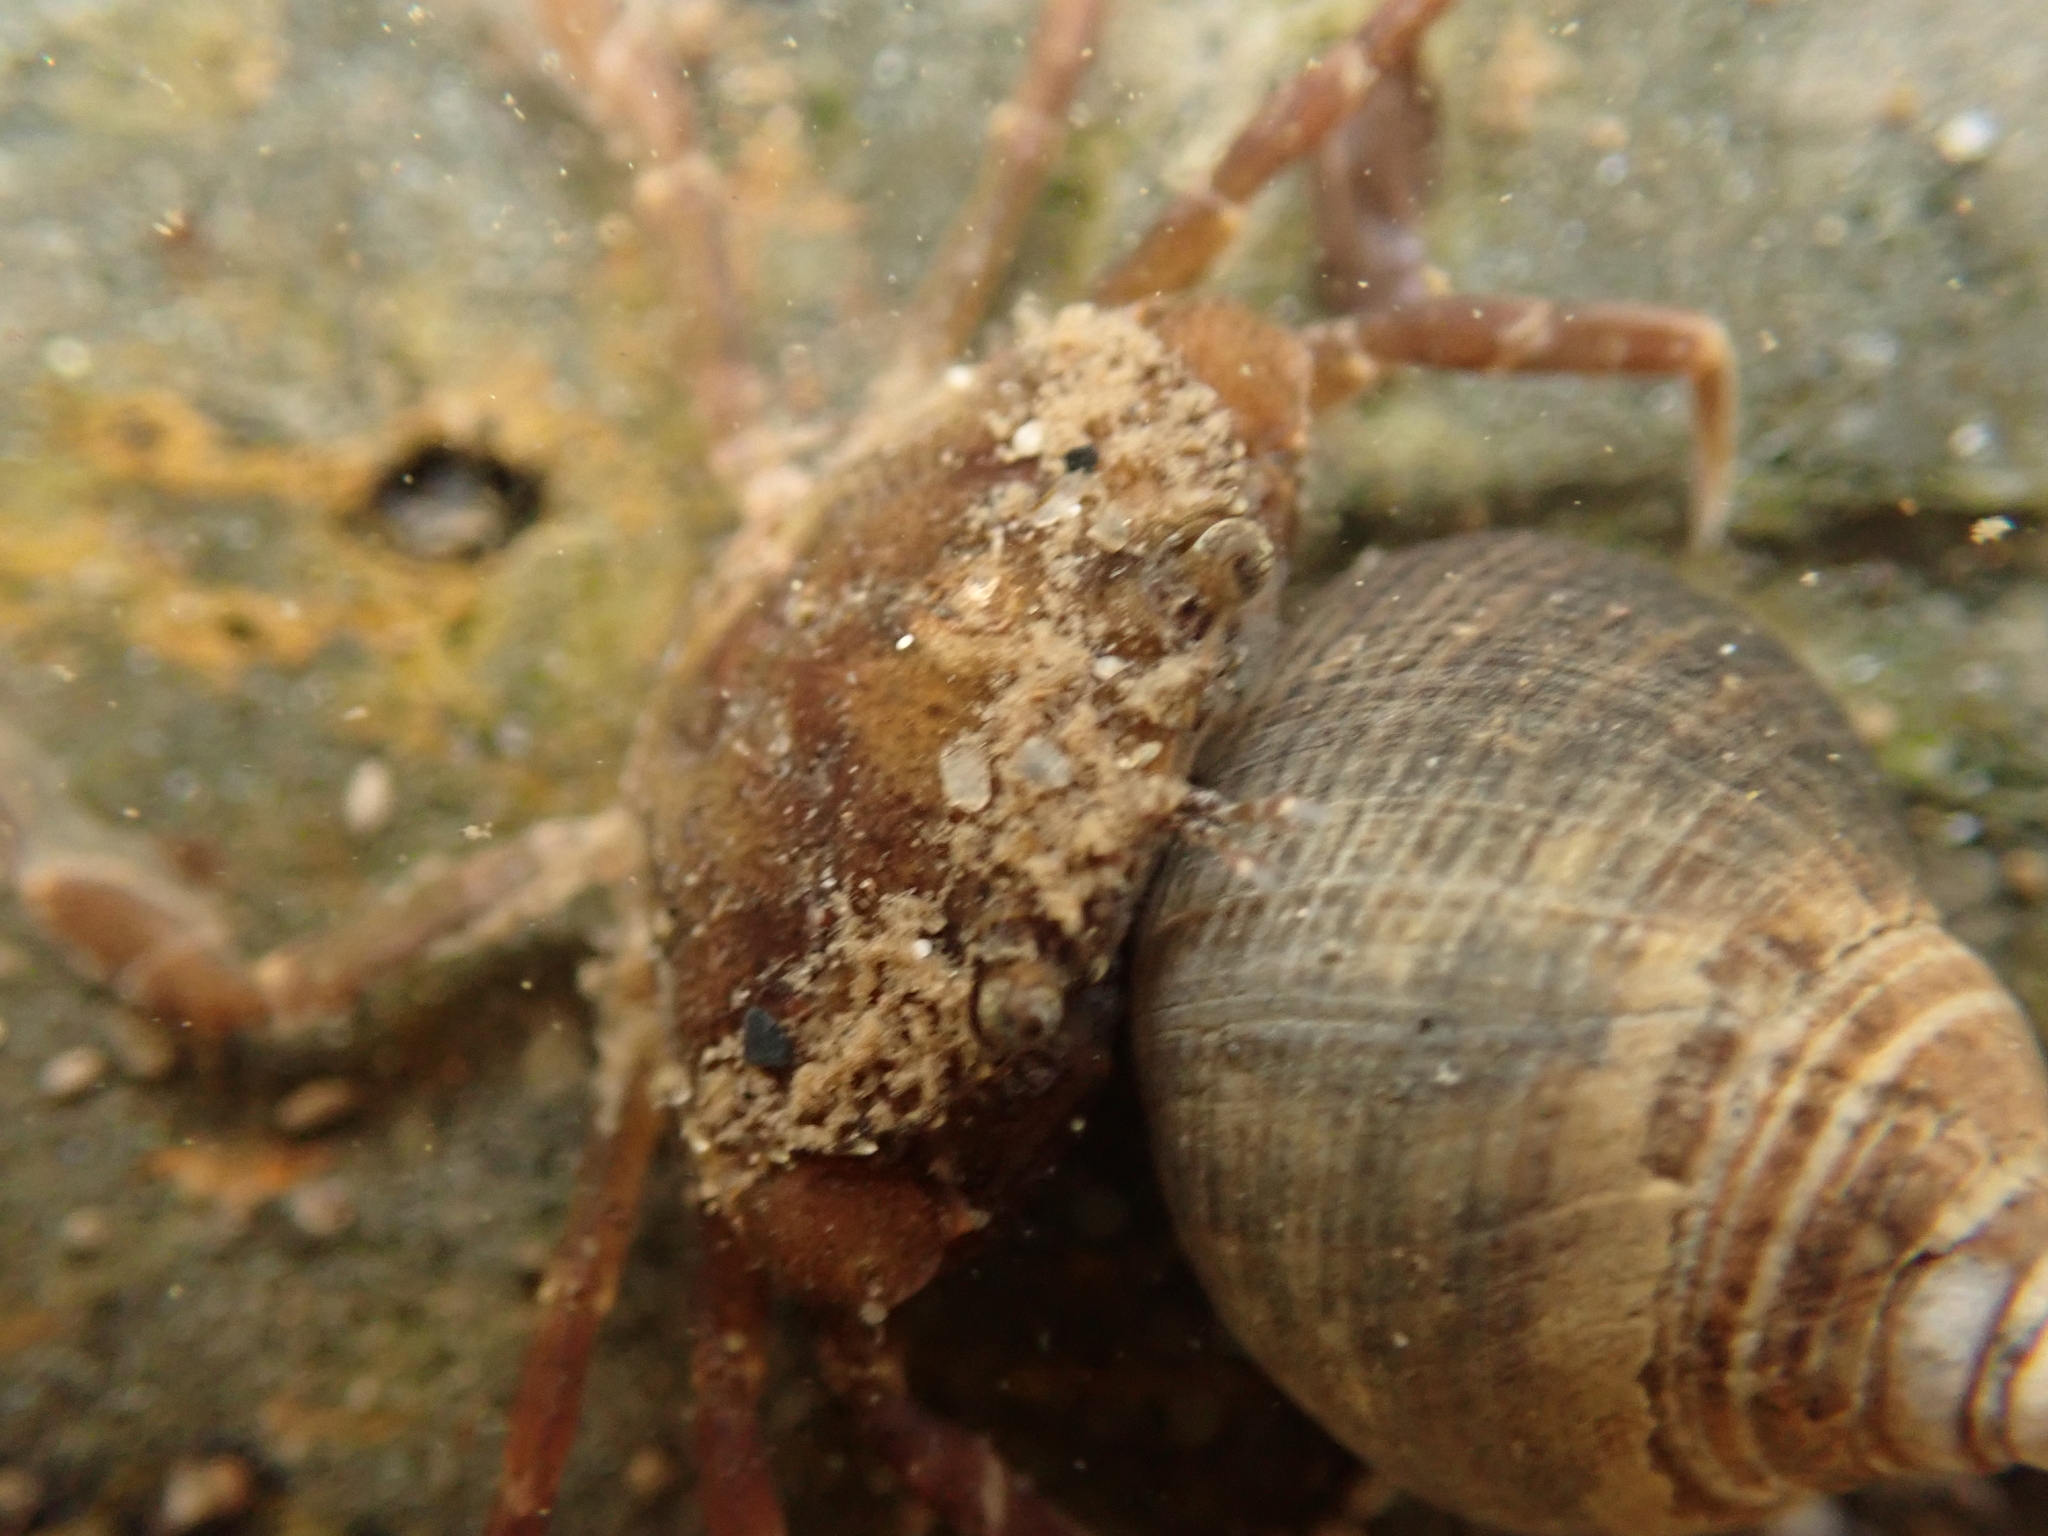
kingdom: Animalia
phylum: Arthropoda
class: Malacostraca
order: Decapoda
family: Carcinidae
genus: Carcinus
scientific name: Carcinus maenas
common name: European green crab
